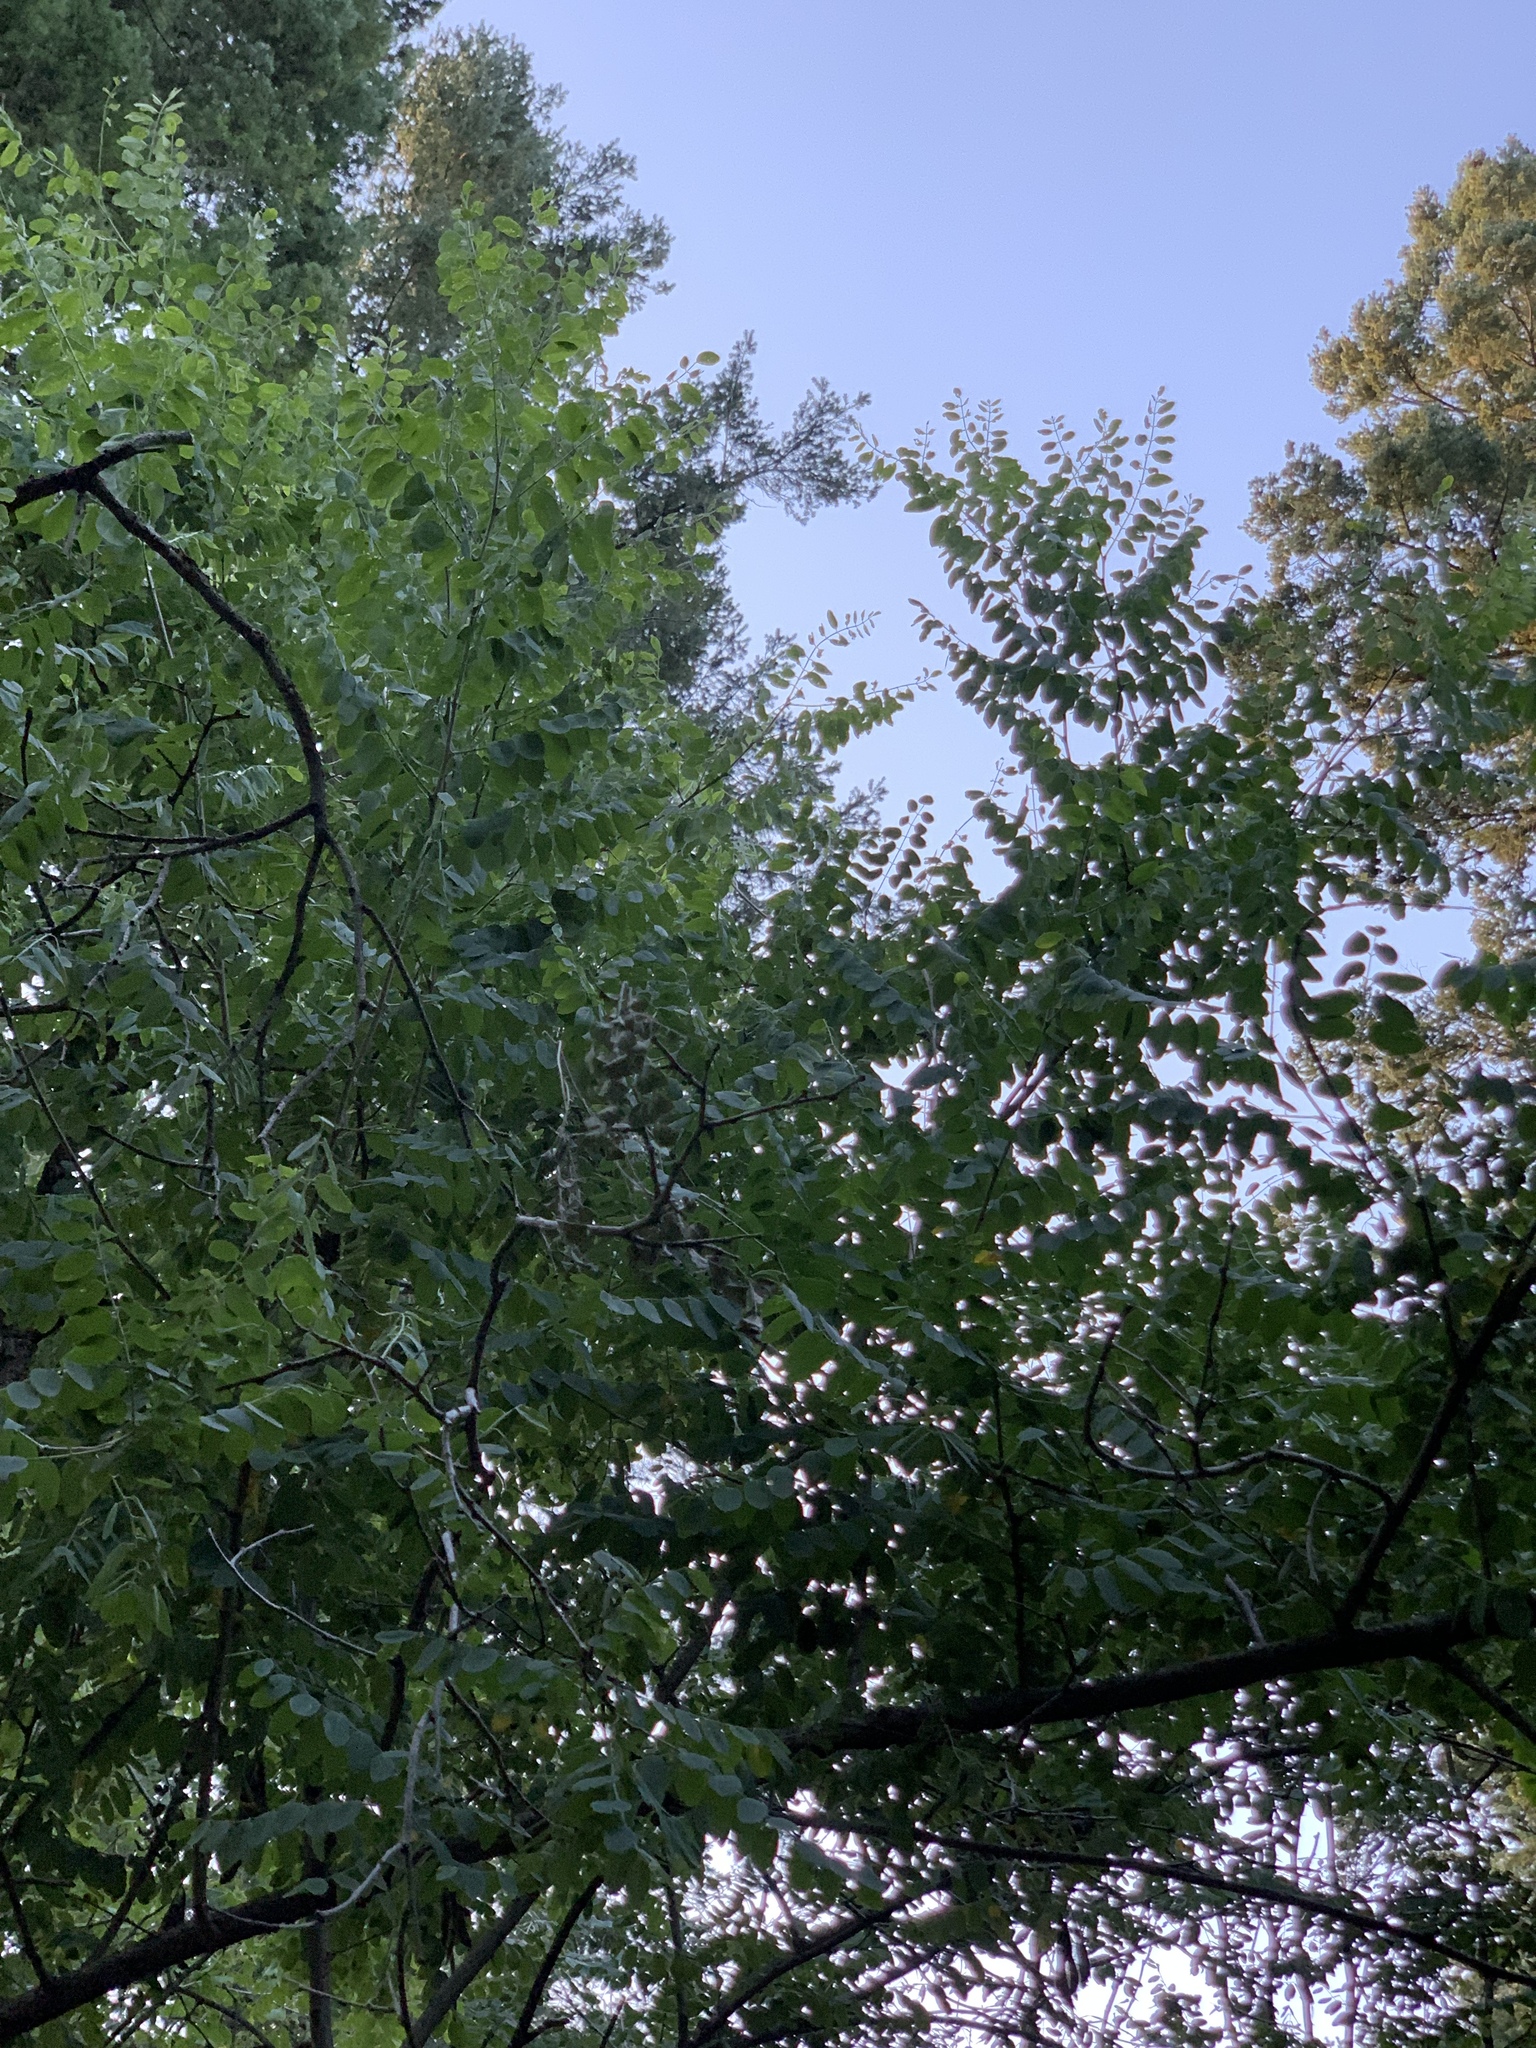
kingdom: Plantae
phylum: Tracheophyta
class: Magnoliopsida
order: Fabales
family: Fabaceae
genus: Robinia
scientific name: Robinia neomexicana
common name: New mexico locust
